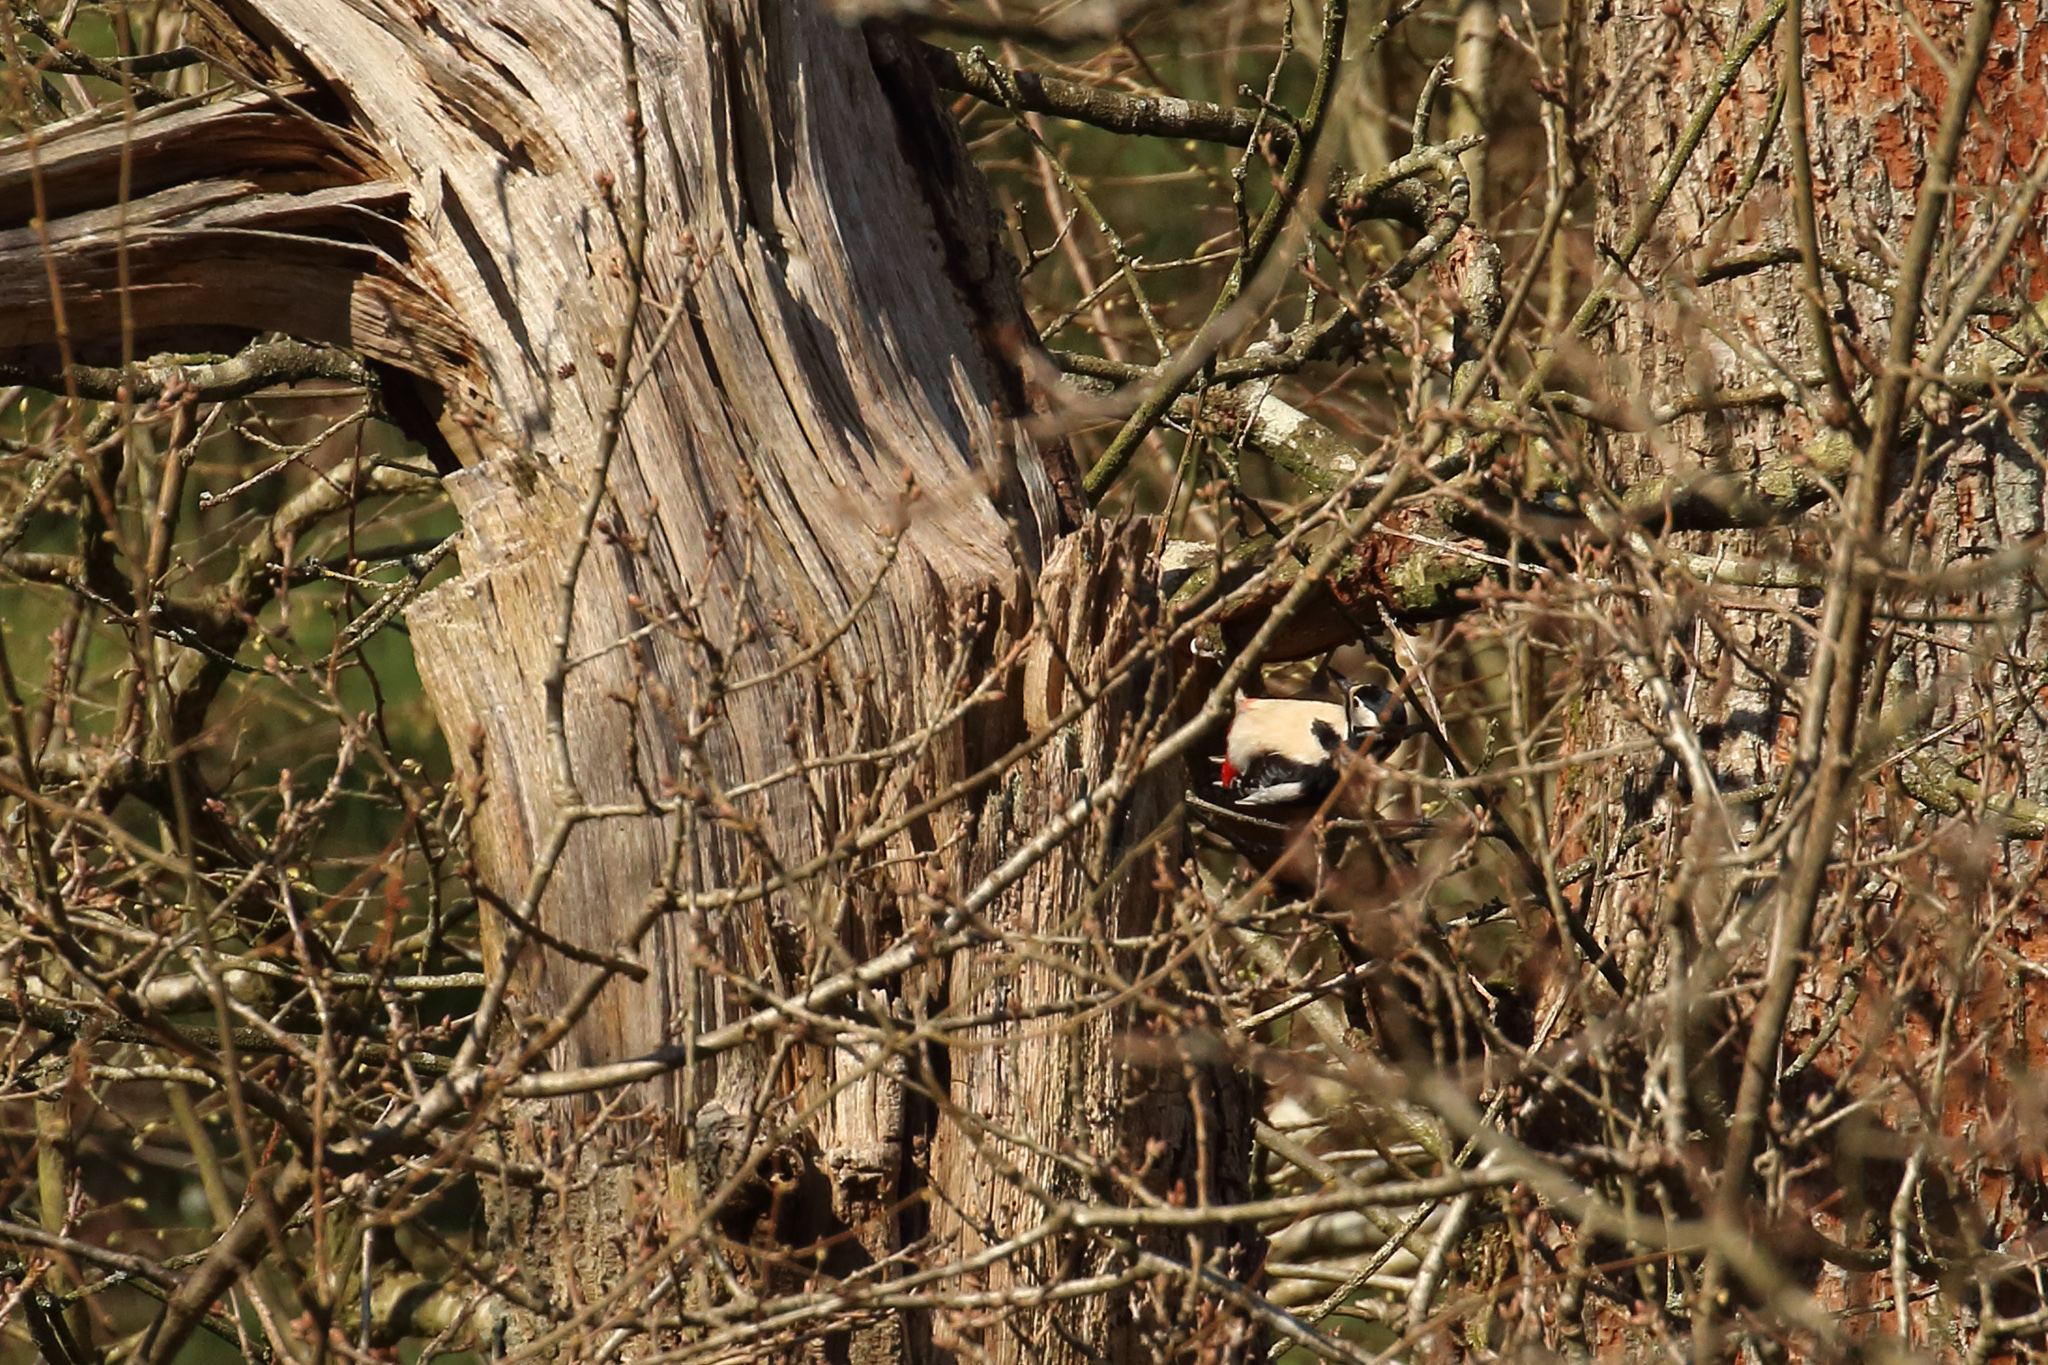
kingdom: Animalia
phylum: Chordata
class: Aves
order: Piciformes
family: Picidae
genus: Dendrocopos
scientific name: Dendrocopos major
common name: Great spotted woodpecker
